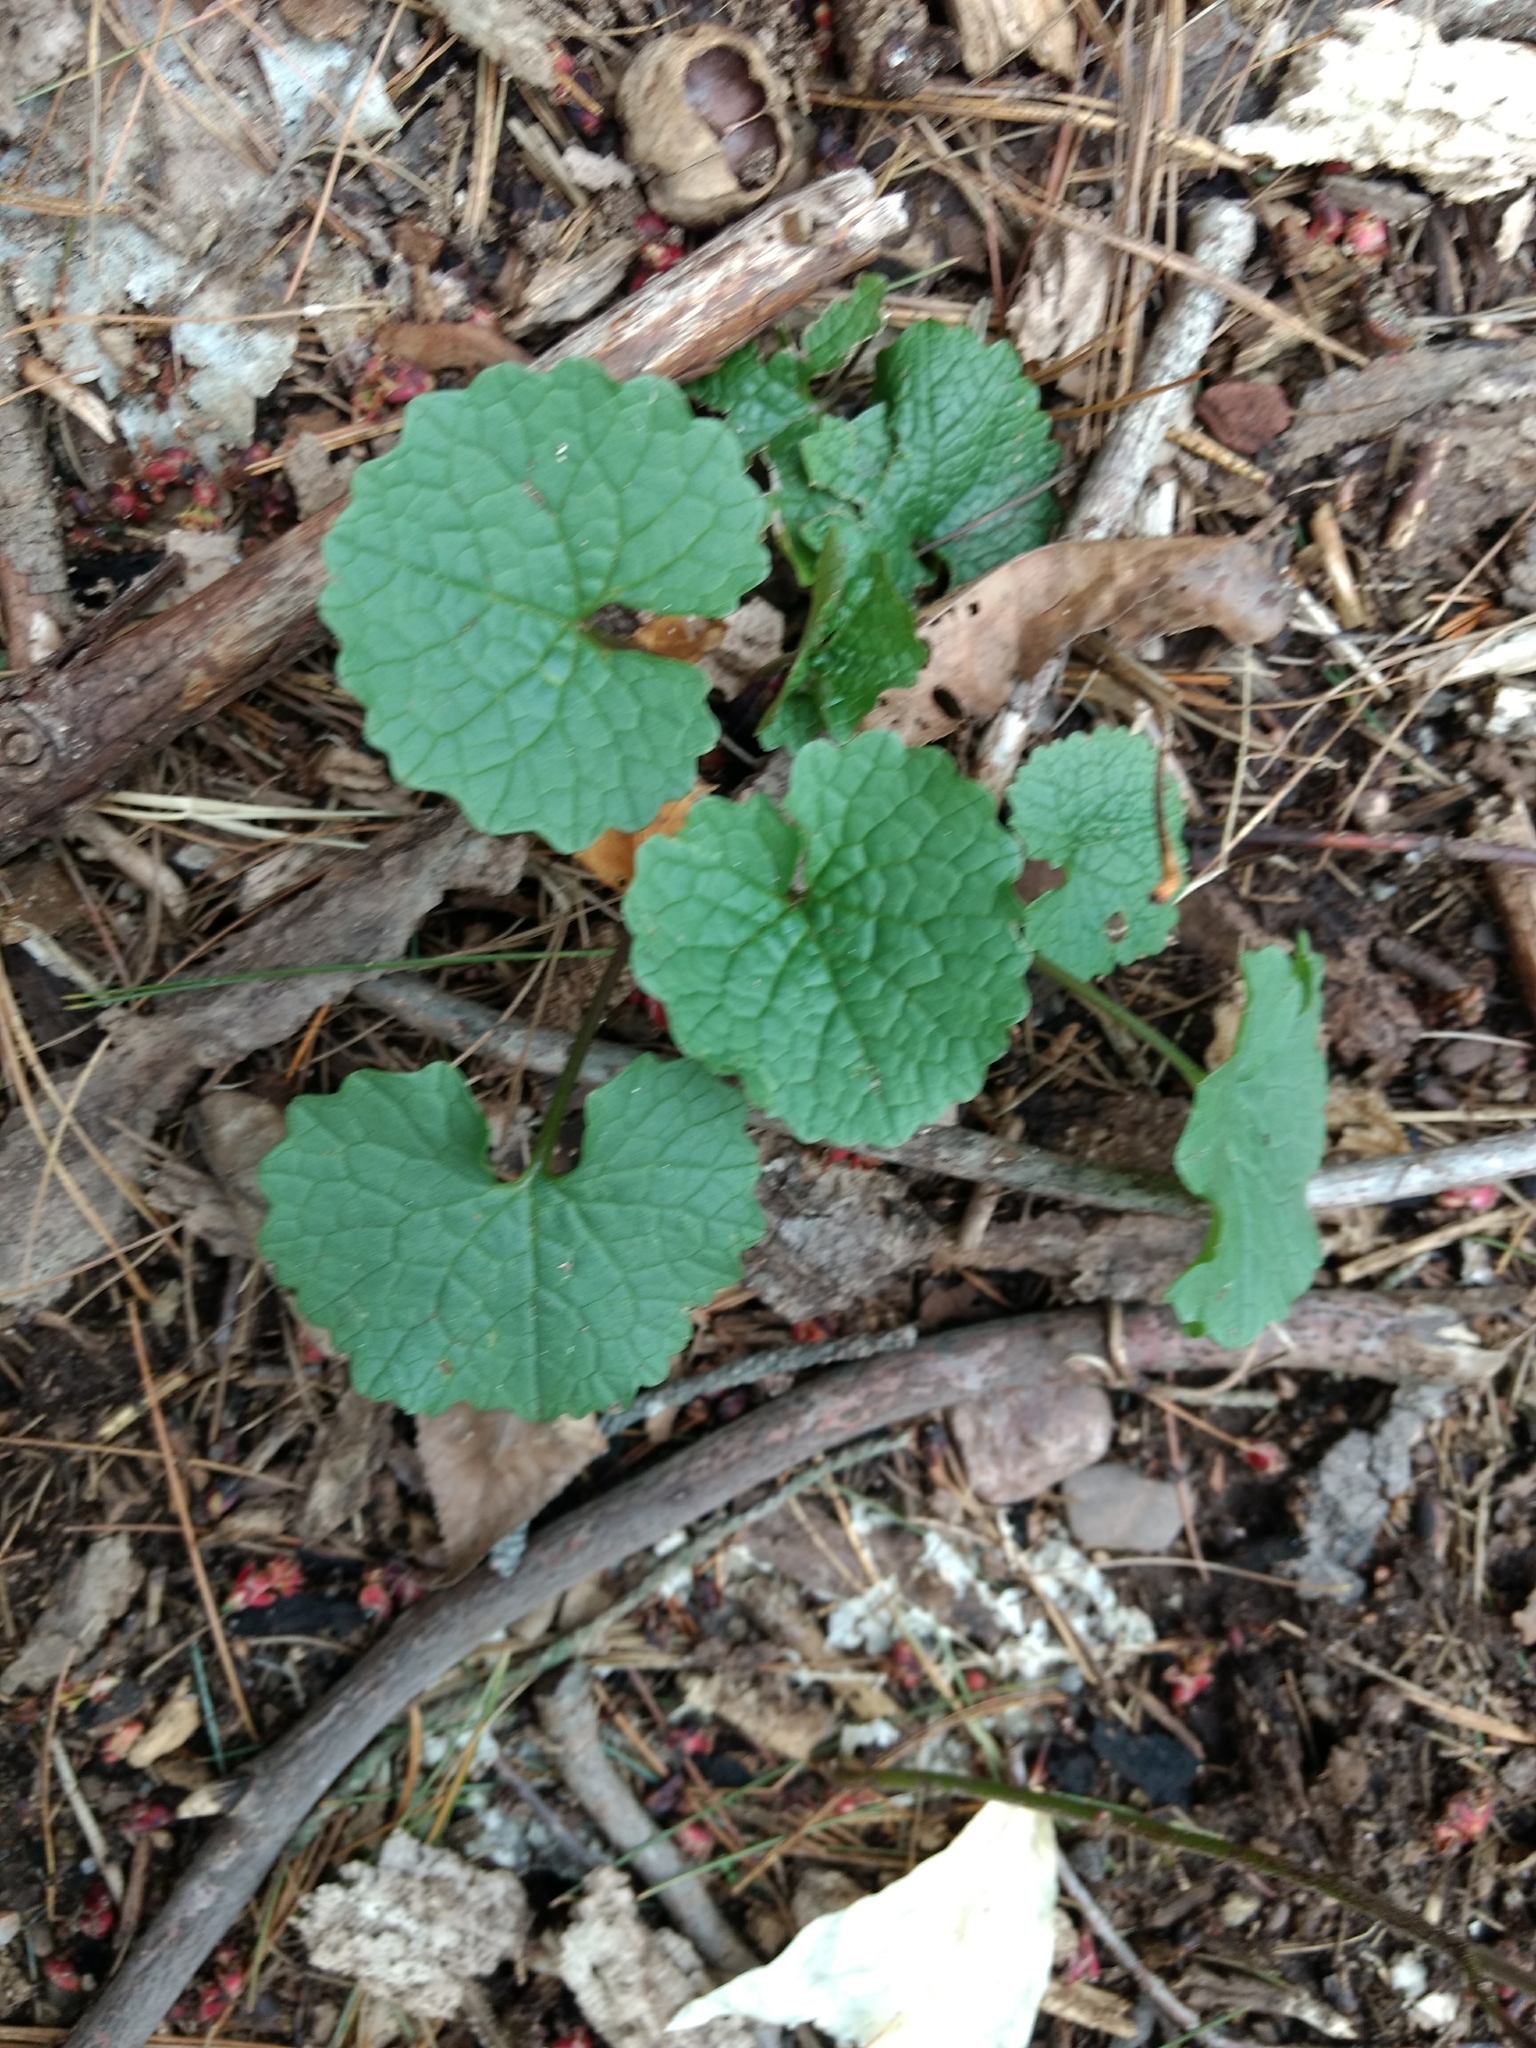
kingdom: Plantae
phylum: Tracheophyta
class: Magnoliopsida
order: Brassicales
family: Brassicaceae
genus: Alliaria
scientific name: Alliaria petiolata
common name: Garlic mustard
